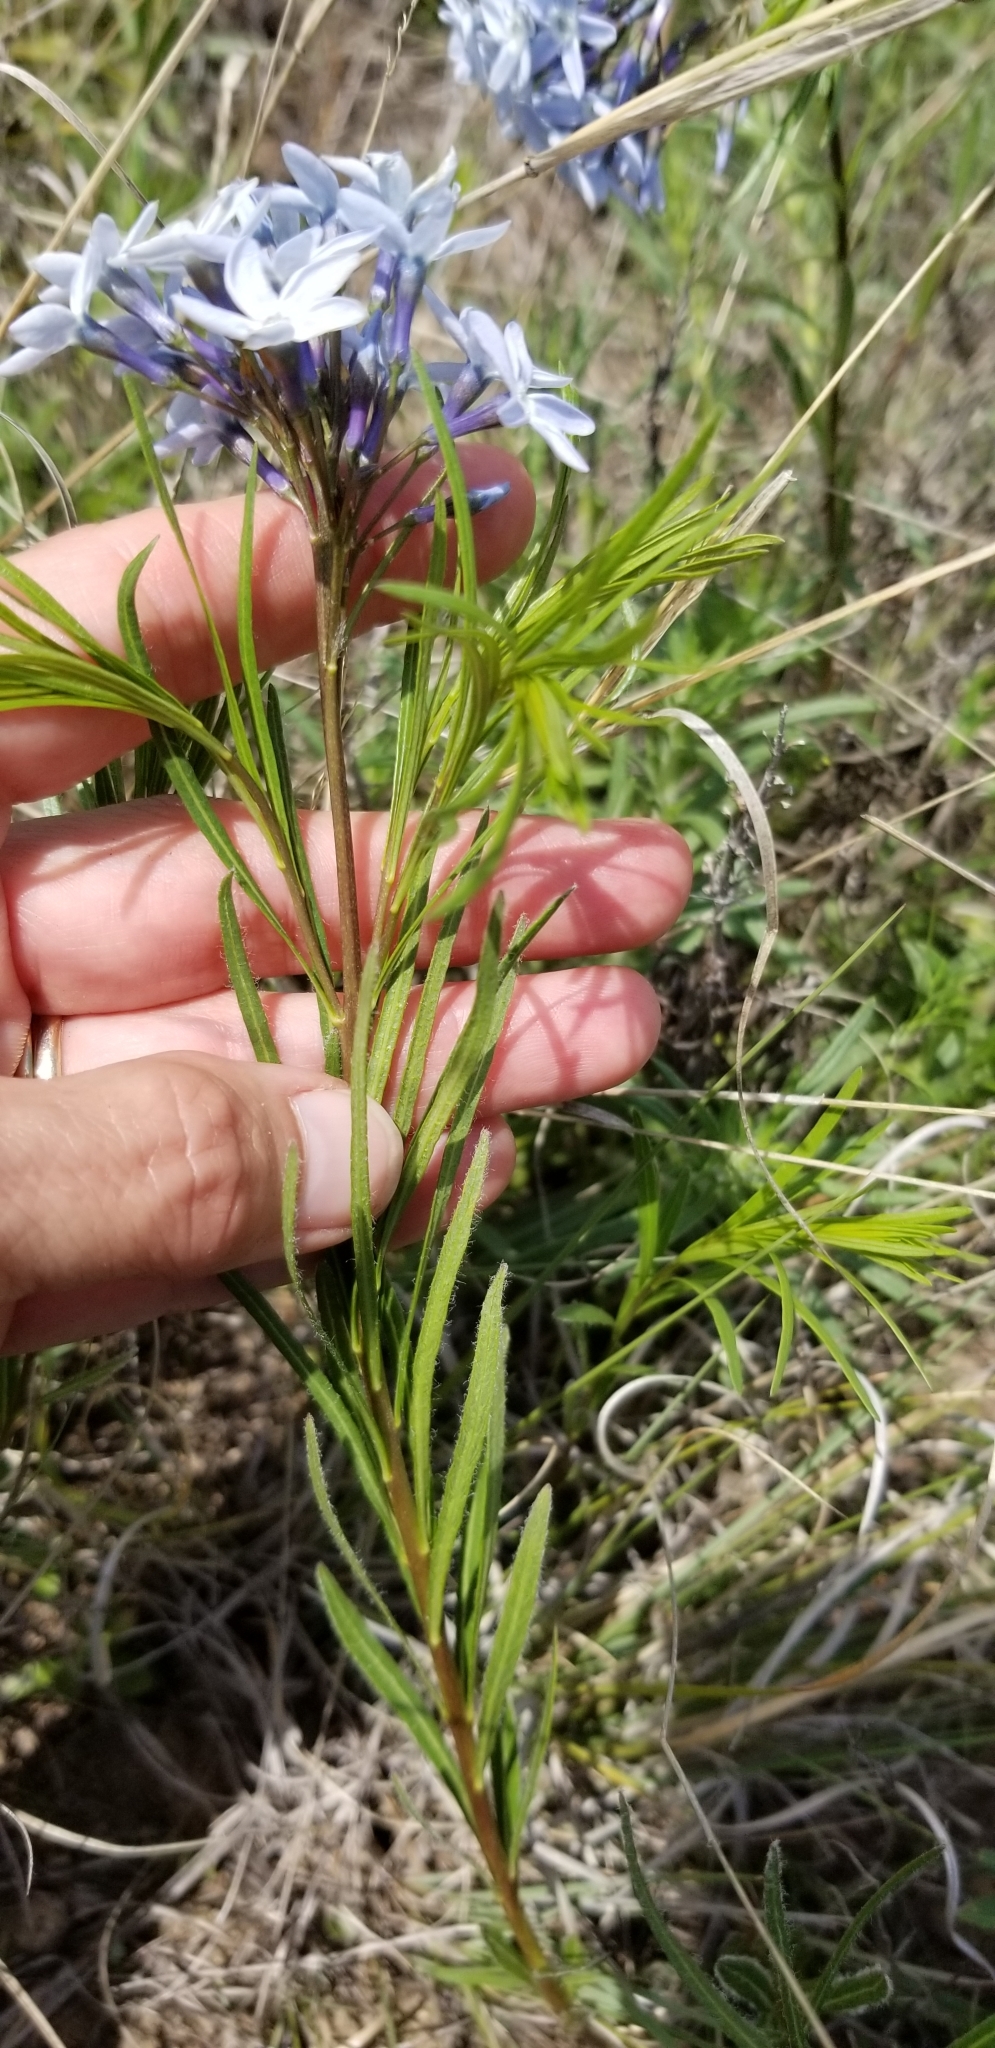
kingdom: Plantae
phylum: Tracheophyta
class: Magnoliopsida
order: Gentianales
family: Apocynaceae
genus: Amsonia
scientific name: Amsonia ciliata
